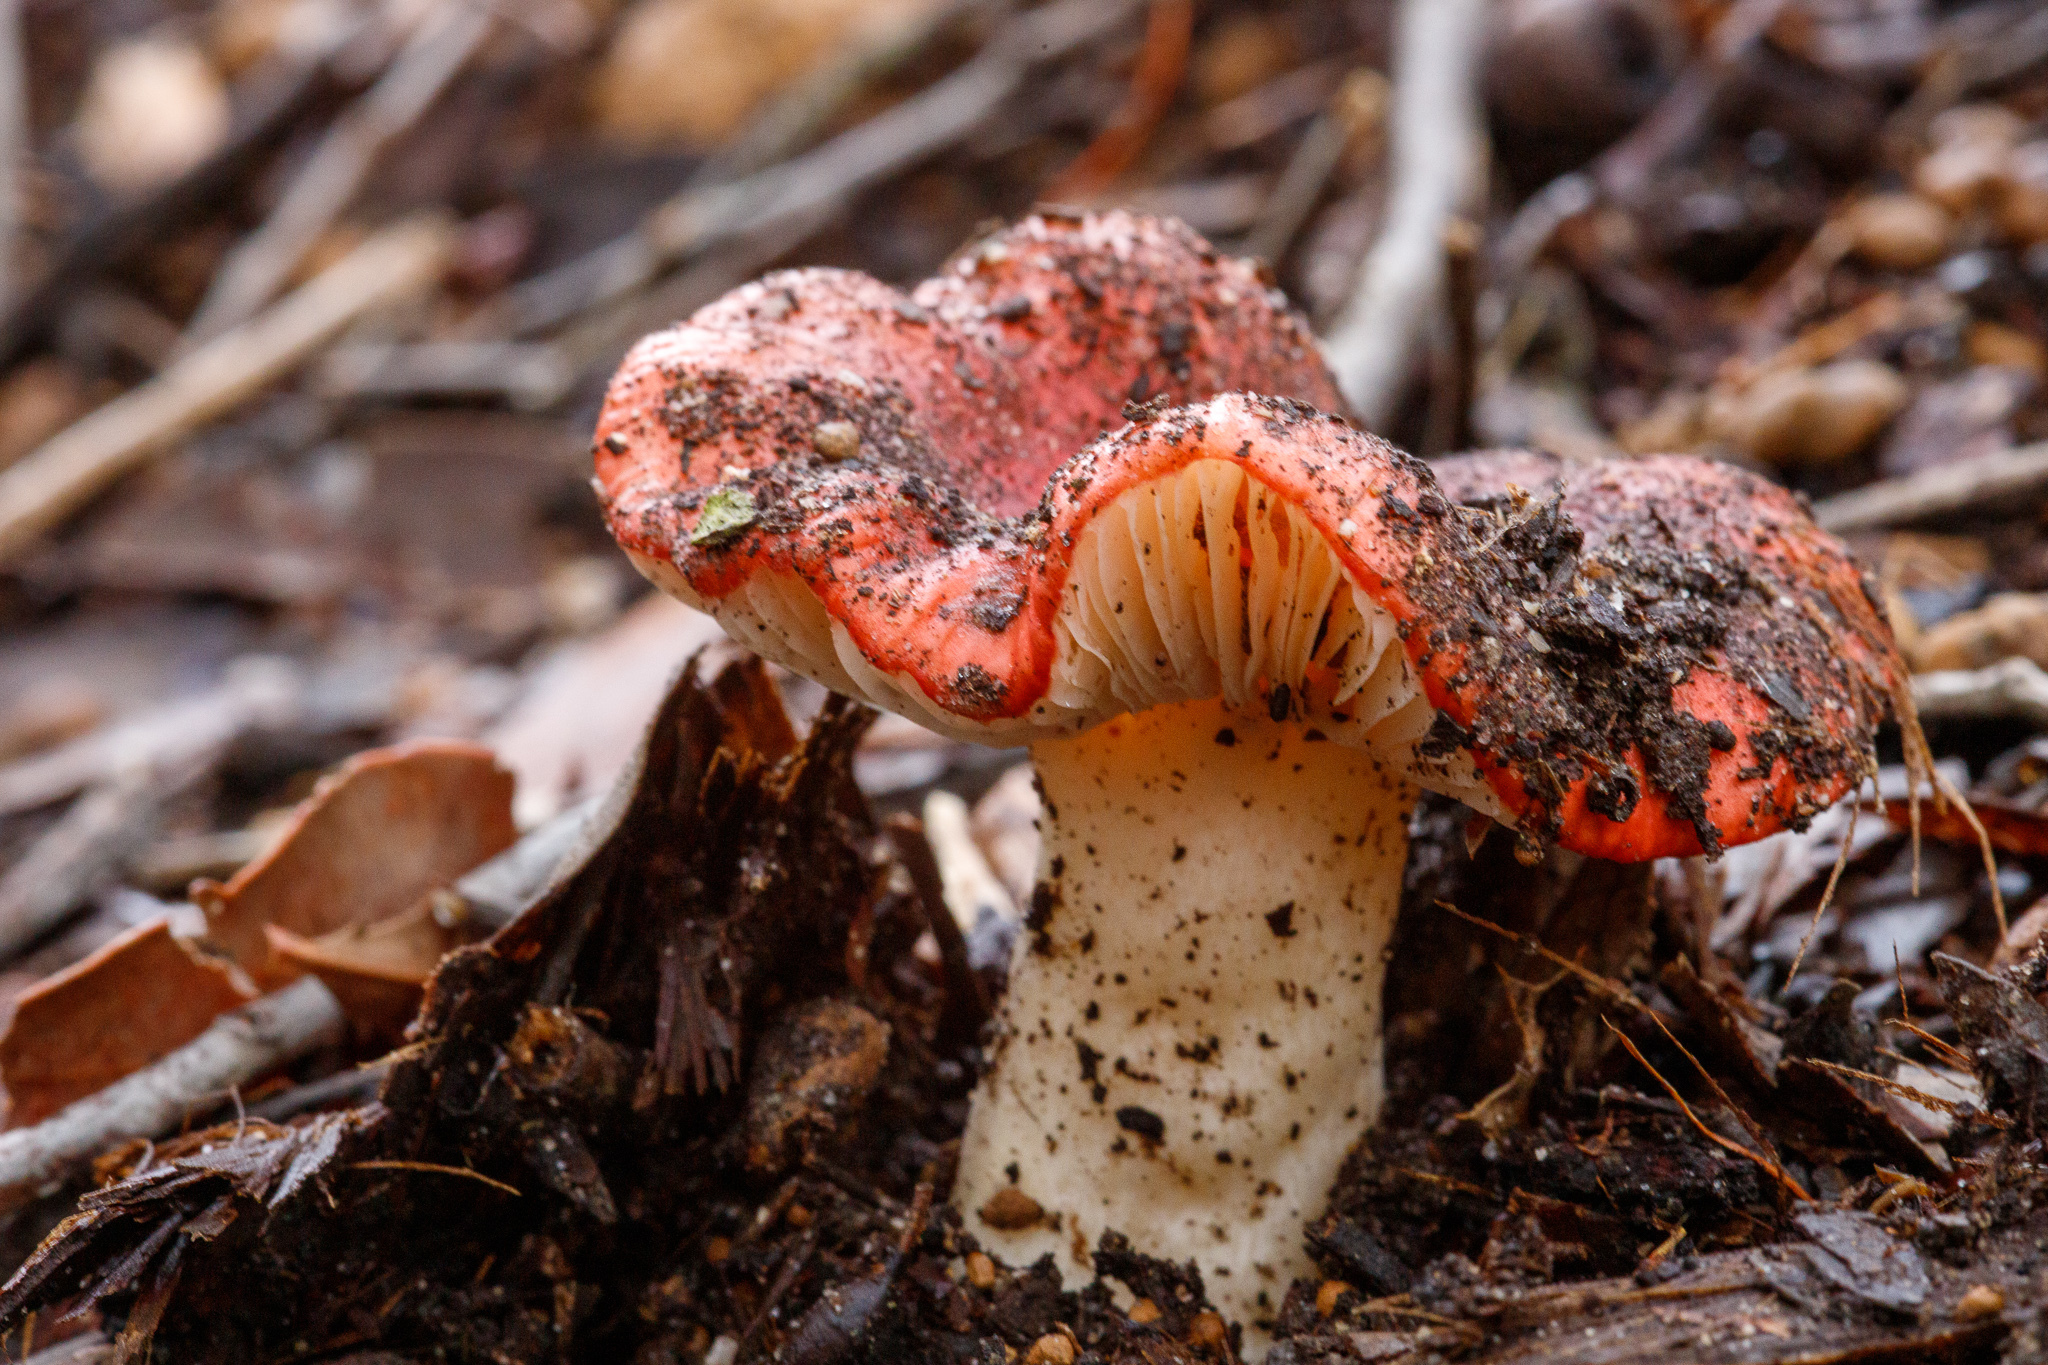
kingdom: Fungi
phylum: Basidiomycota
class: Agaricomycetes
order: Russulales
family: Russulaceae
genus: Russula
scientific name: Russula persanguinea
